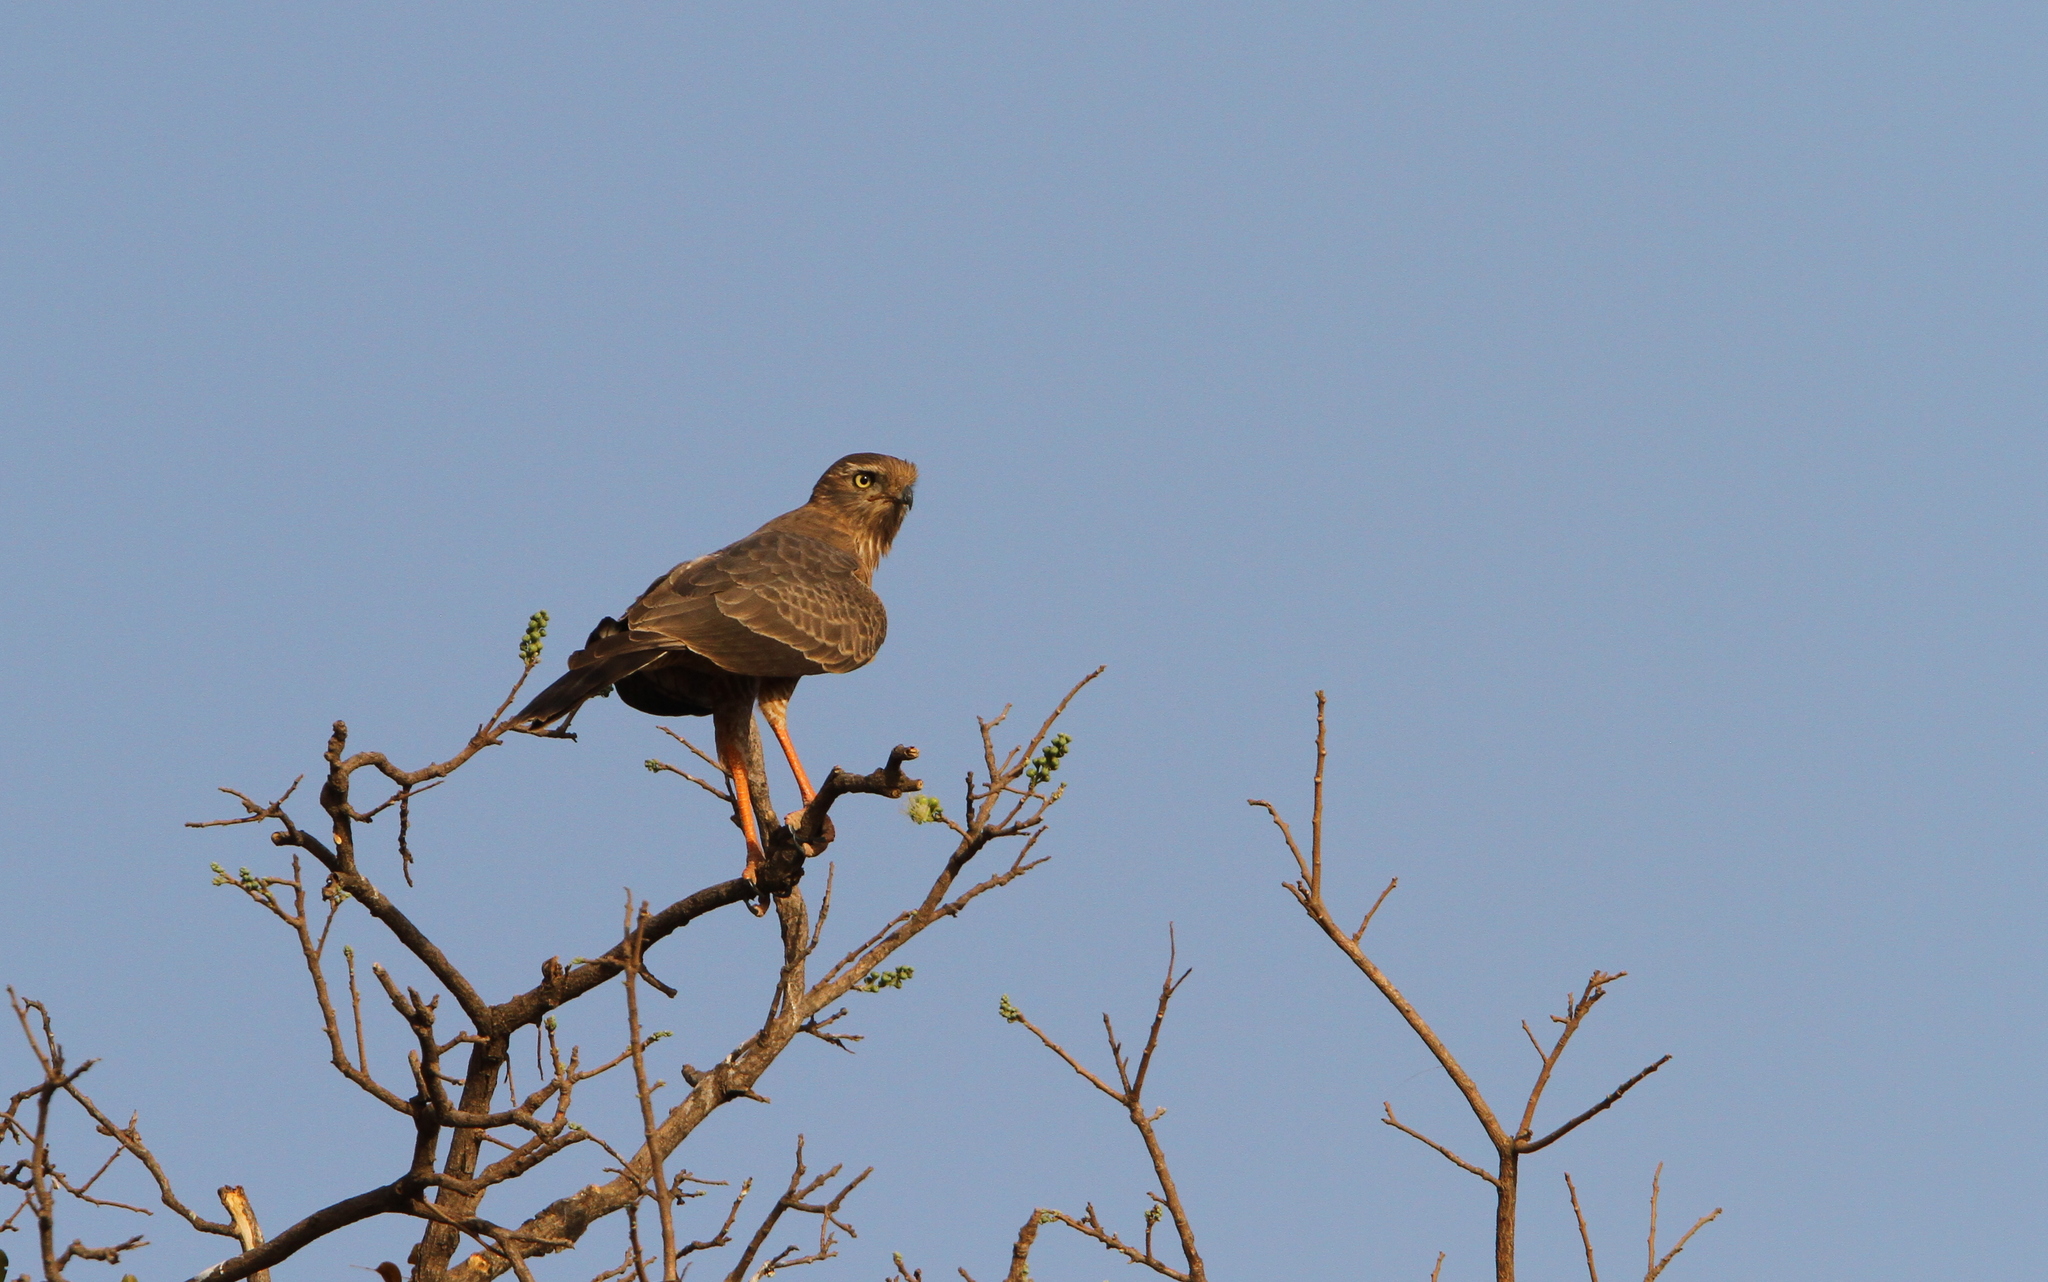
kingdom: Animalia
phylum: Chordata
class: Aves
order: Accipitriformes
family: Accipitridae
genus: Melierax
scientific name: Melierax metabates
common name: Dark chanting-goshawk
